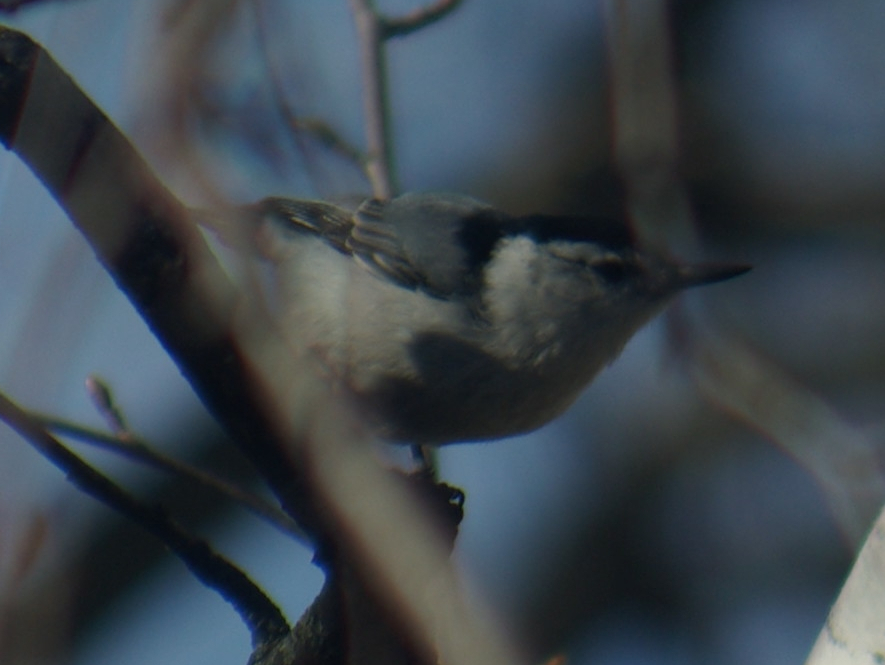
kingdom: Animalia
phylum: Chordata
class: Aves
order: Passeriformes
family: Sittidae
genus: Sitta
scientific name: Sitta carolinensis
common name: White-breasted nuthatch
